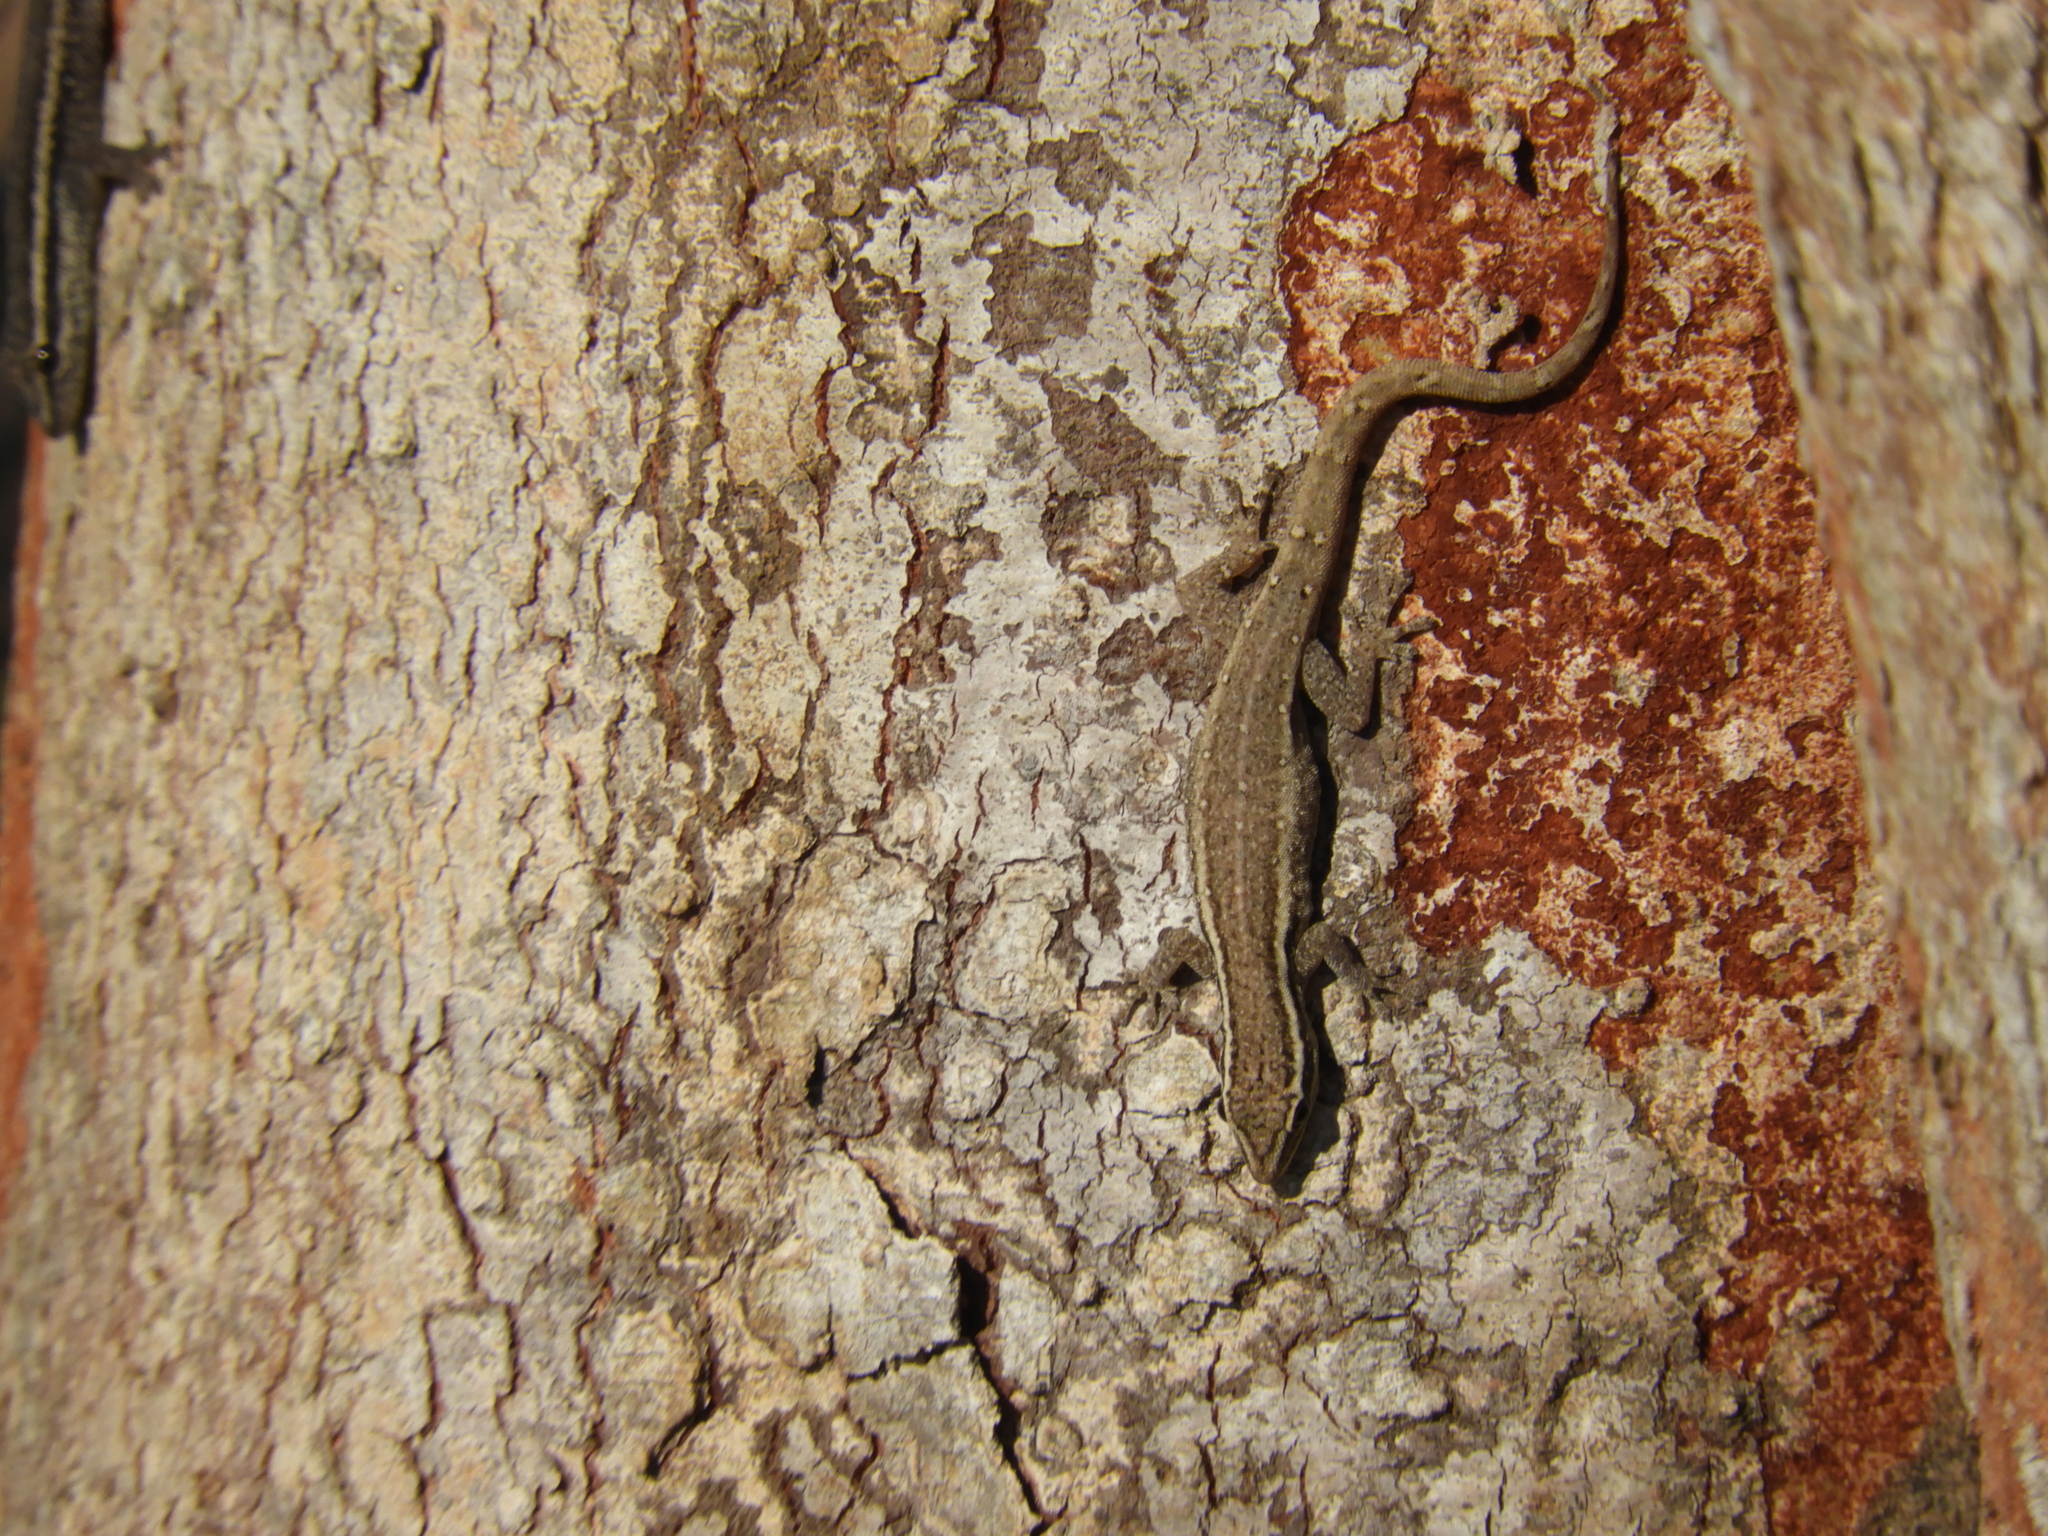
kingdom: Animalia
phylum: Chordata
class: Squamata
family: Gekkonidae
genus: Lygodactylus
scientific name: Lygodactylus capensis
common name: Cape dwarf gecko
